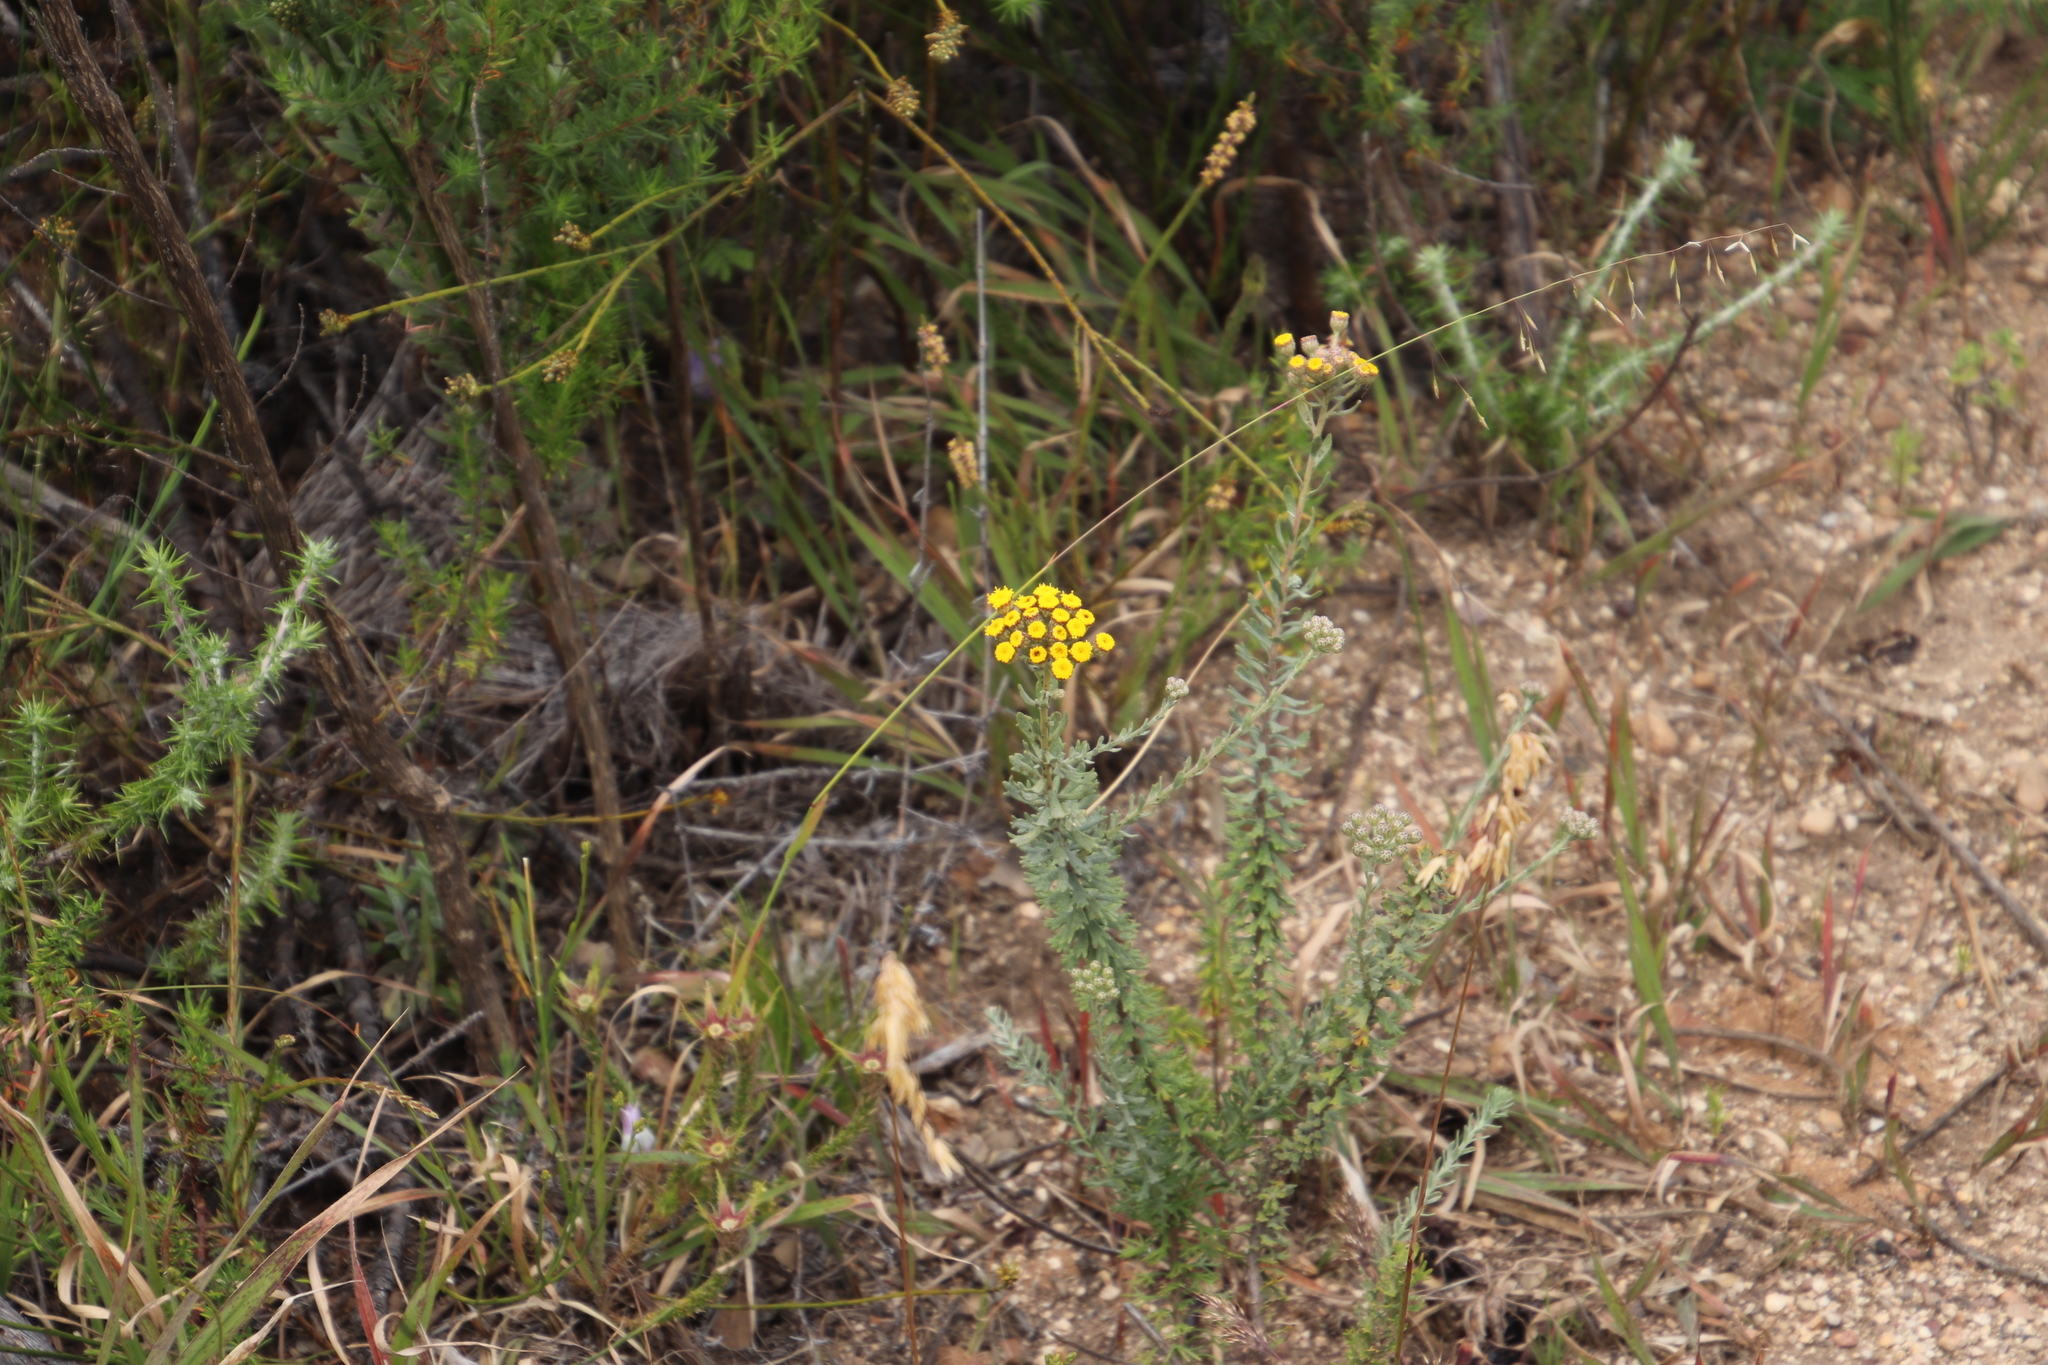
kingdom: Plantae
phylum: Tracheophyta
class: Magnoliopsida
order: Asterales
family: Asteraceae
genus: Athanasia
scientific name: Athanasia trifurcata
